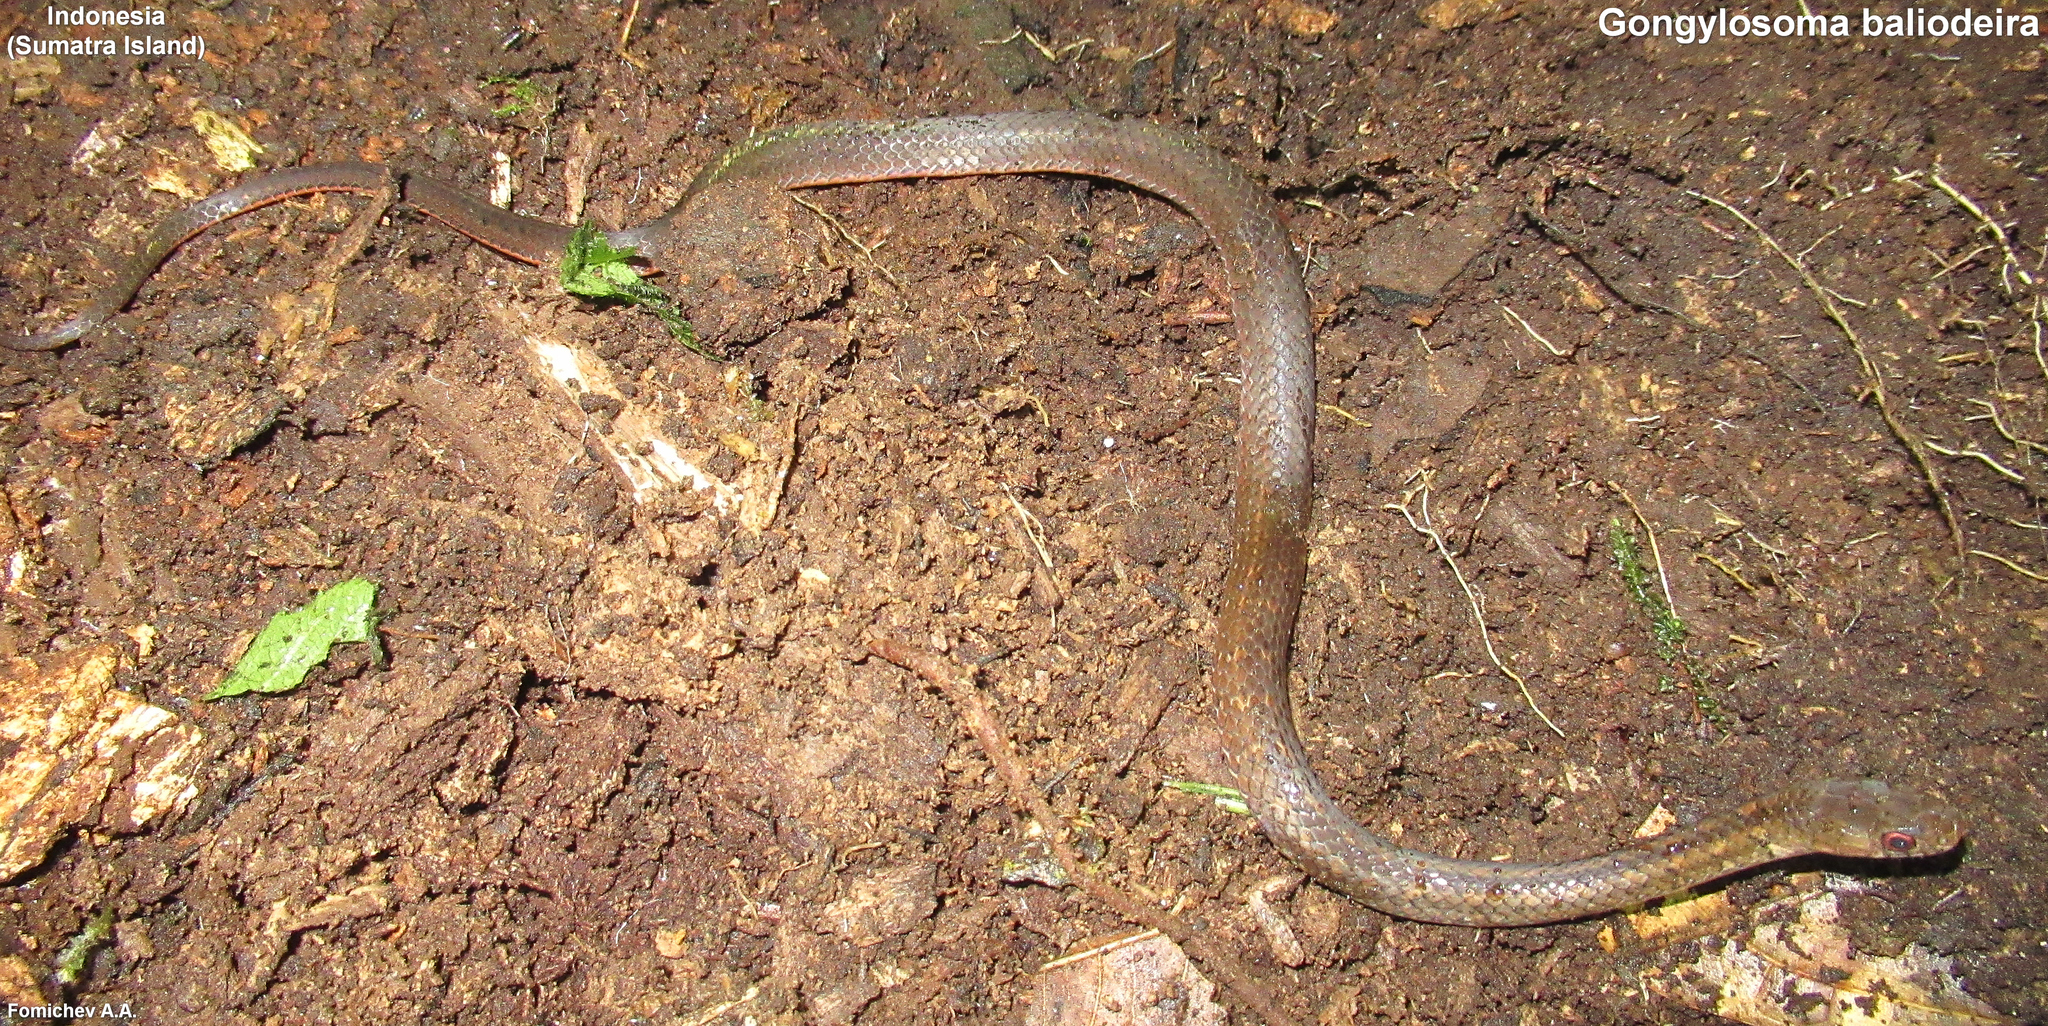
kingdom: Animalia
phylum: Chordata
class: Squamata
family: Colubridae
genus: Gongylosoma
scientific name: Gongylosoma baliodeira
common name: Orange-bellied ringneck/spotted ground snake
